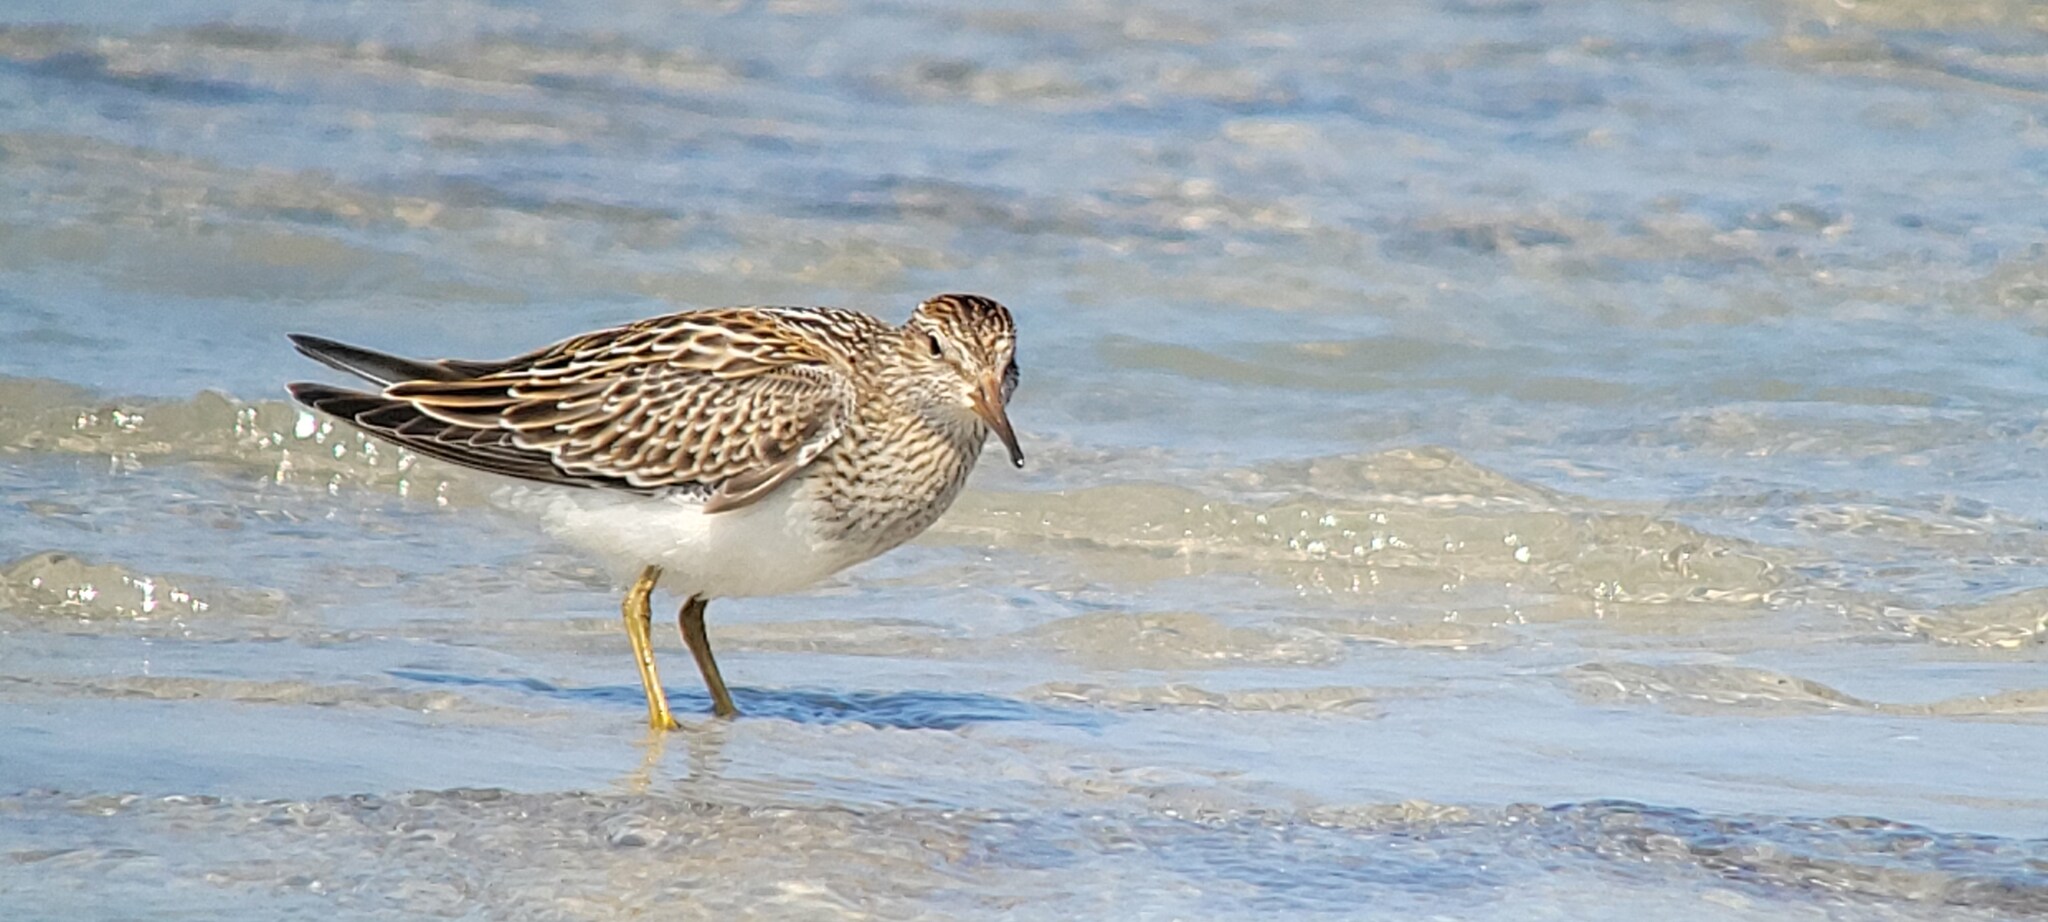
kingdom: Animalia
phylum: Chordata
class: Aves
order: Charadriiformes
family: Scolopacidae
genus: Calidris
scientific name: Calidris melanotos
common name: Pectoral sandpiper
